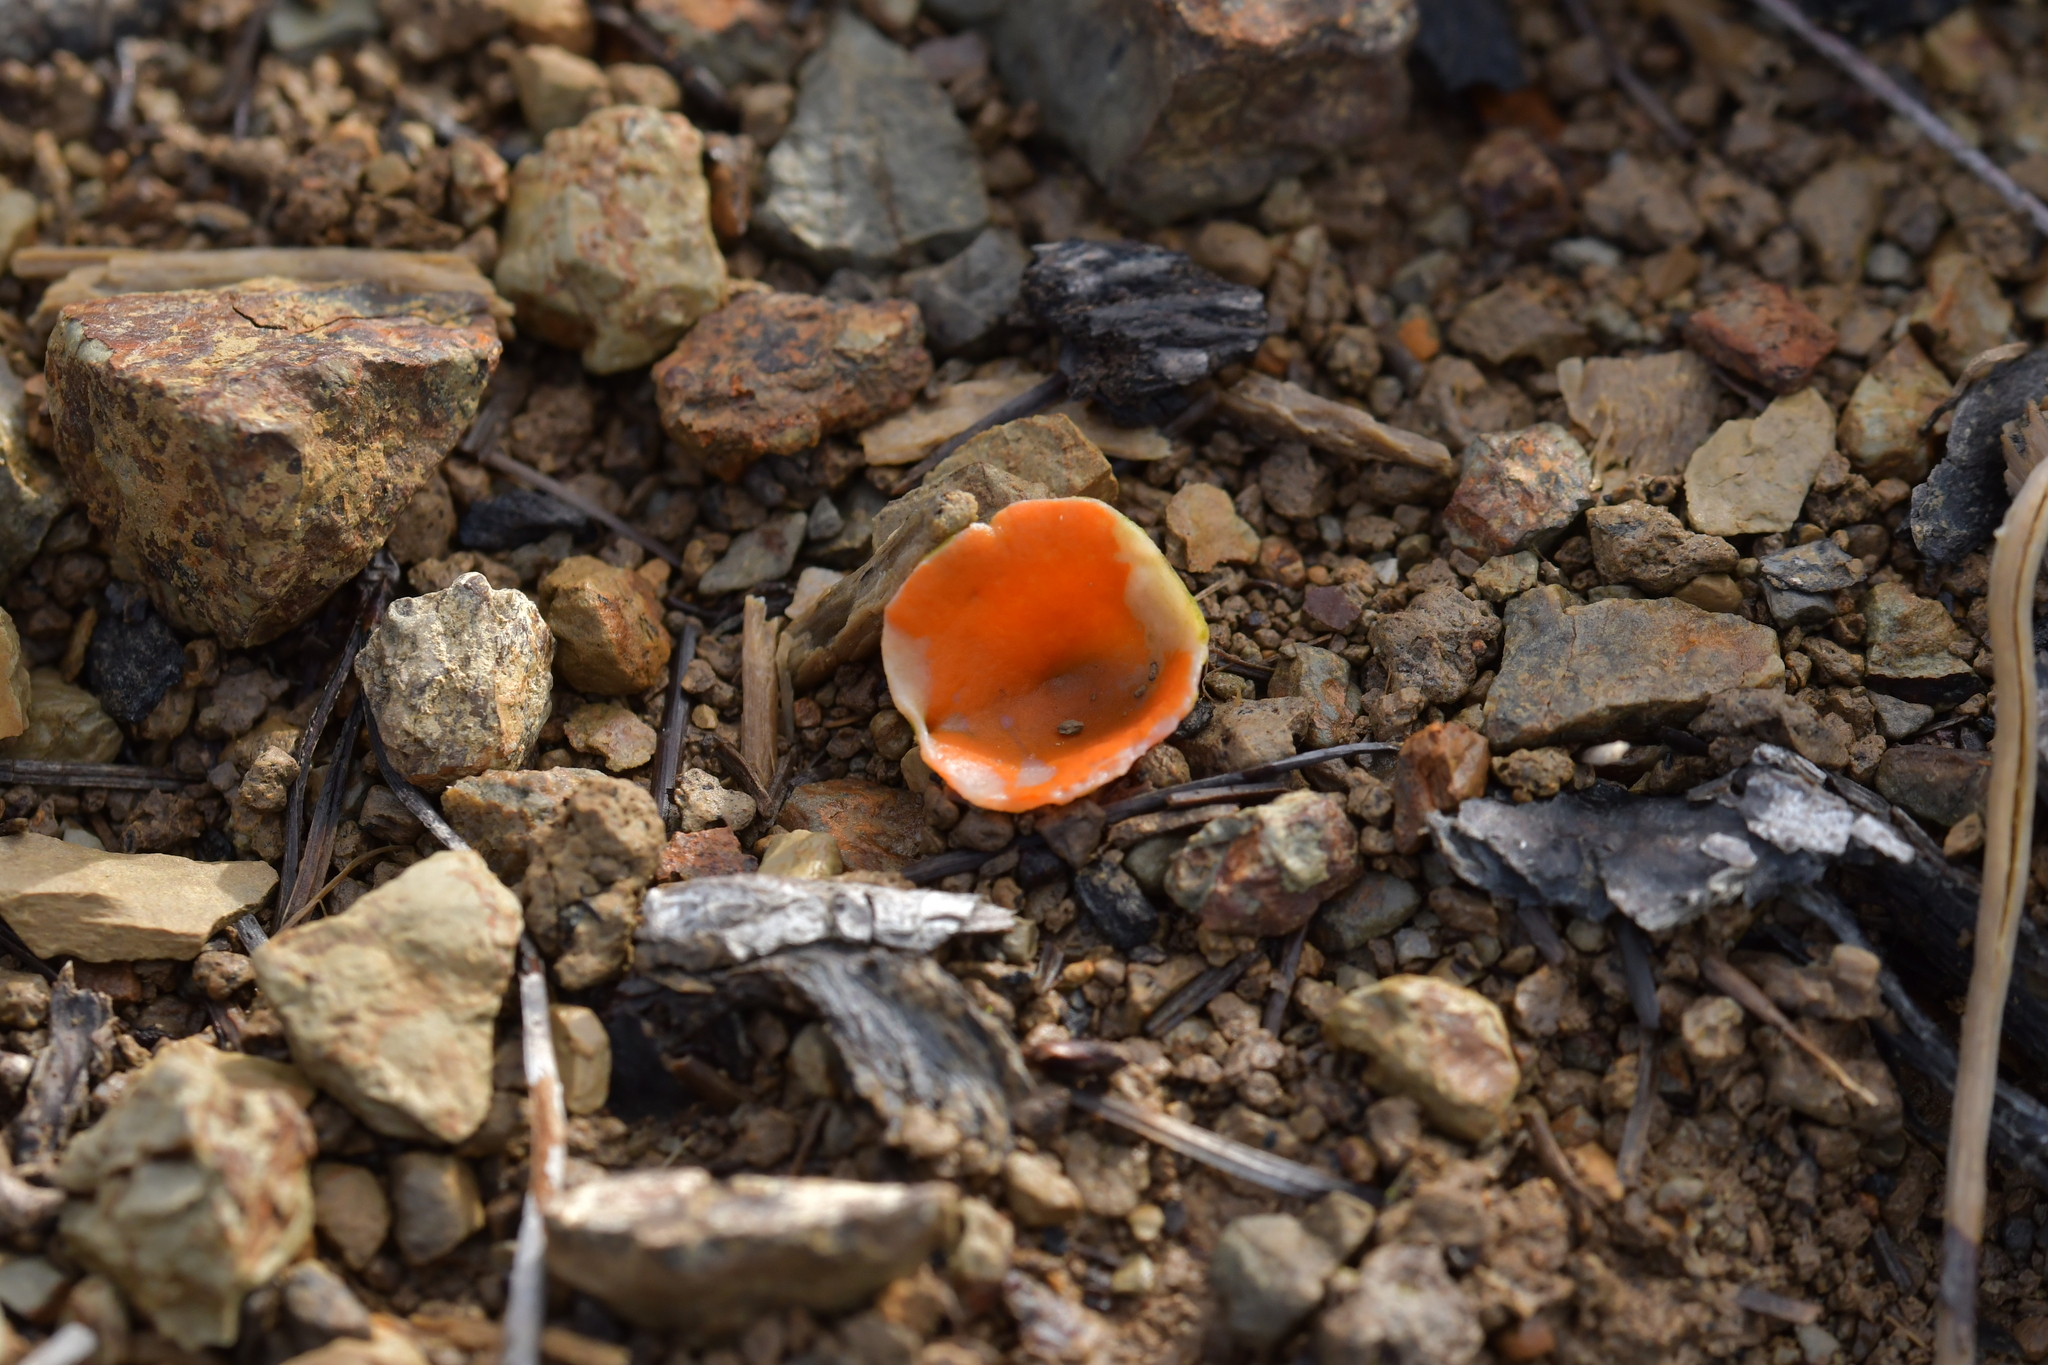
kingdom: Fungi
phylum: Ascomycota
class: Pezizomycetes
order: Pezizales
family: Pyronemataceae
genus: Aleuria
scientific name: Aleuria aurantia
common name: Orange peel fungus
